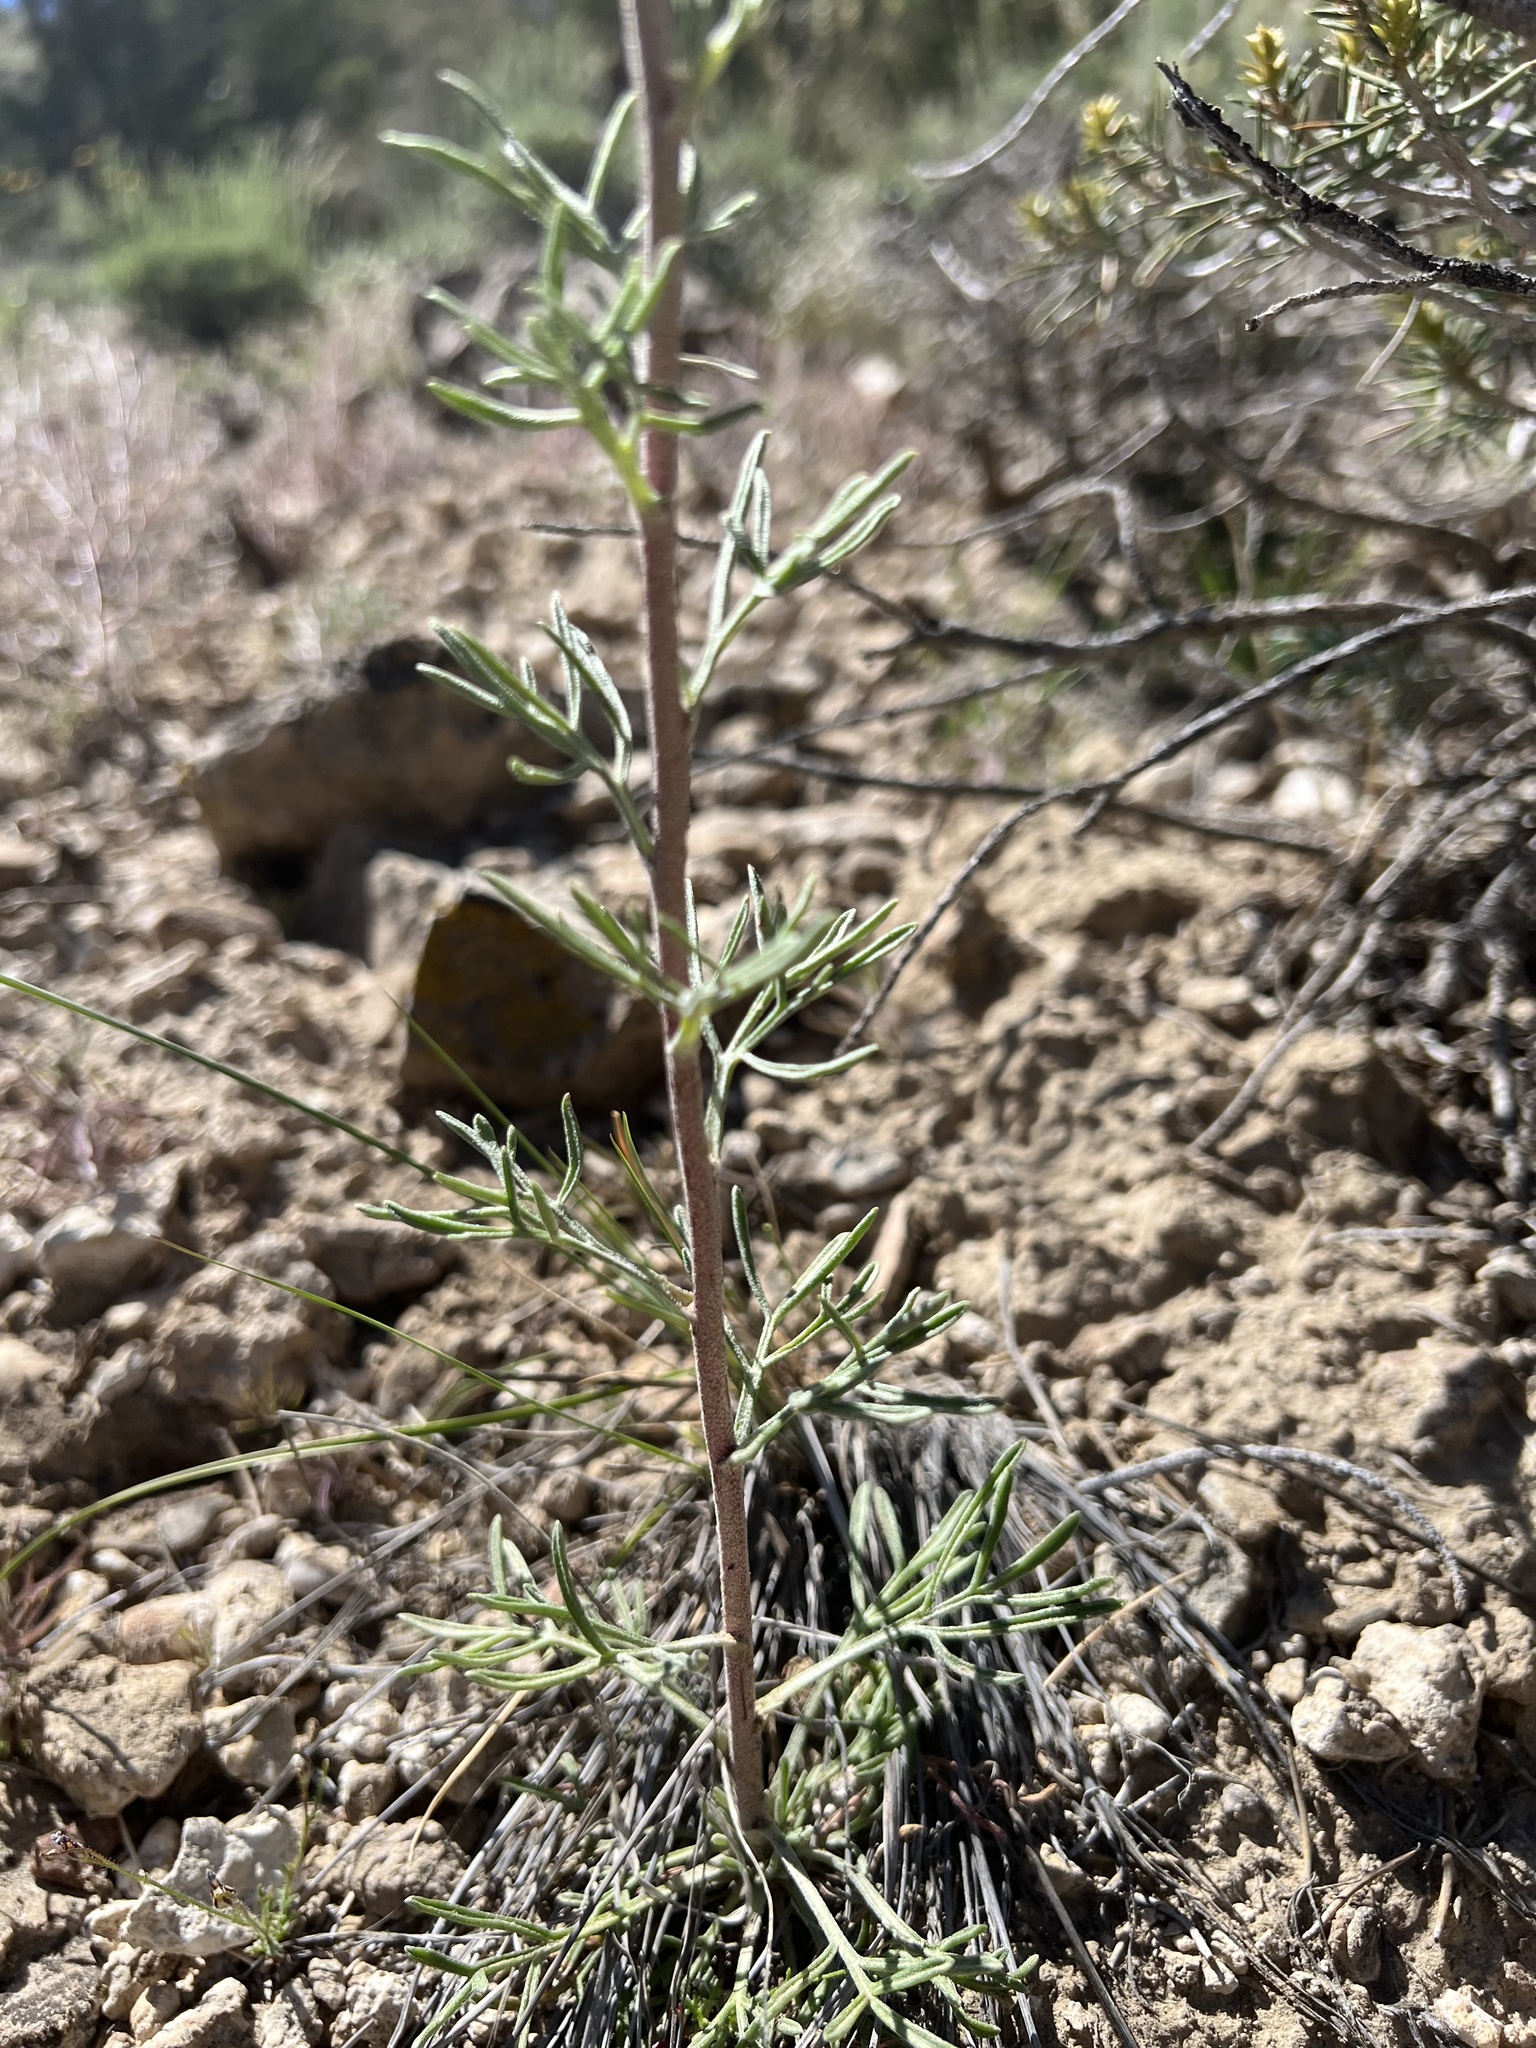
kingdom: Plantae
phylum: Tracheophyta
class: Magnoliopsida
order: Asterales
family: Asteraceae
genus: Hymenoxys
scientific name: Hymenoxys cooperi
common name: Cooper's bitterweed
